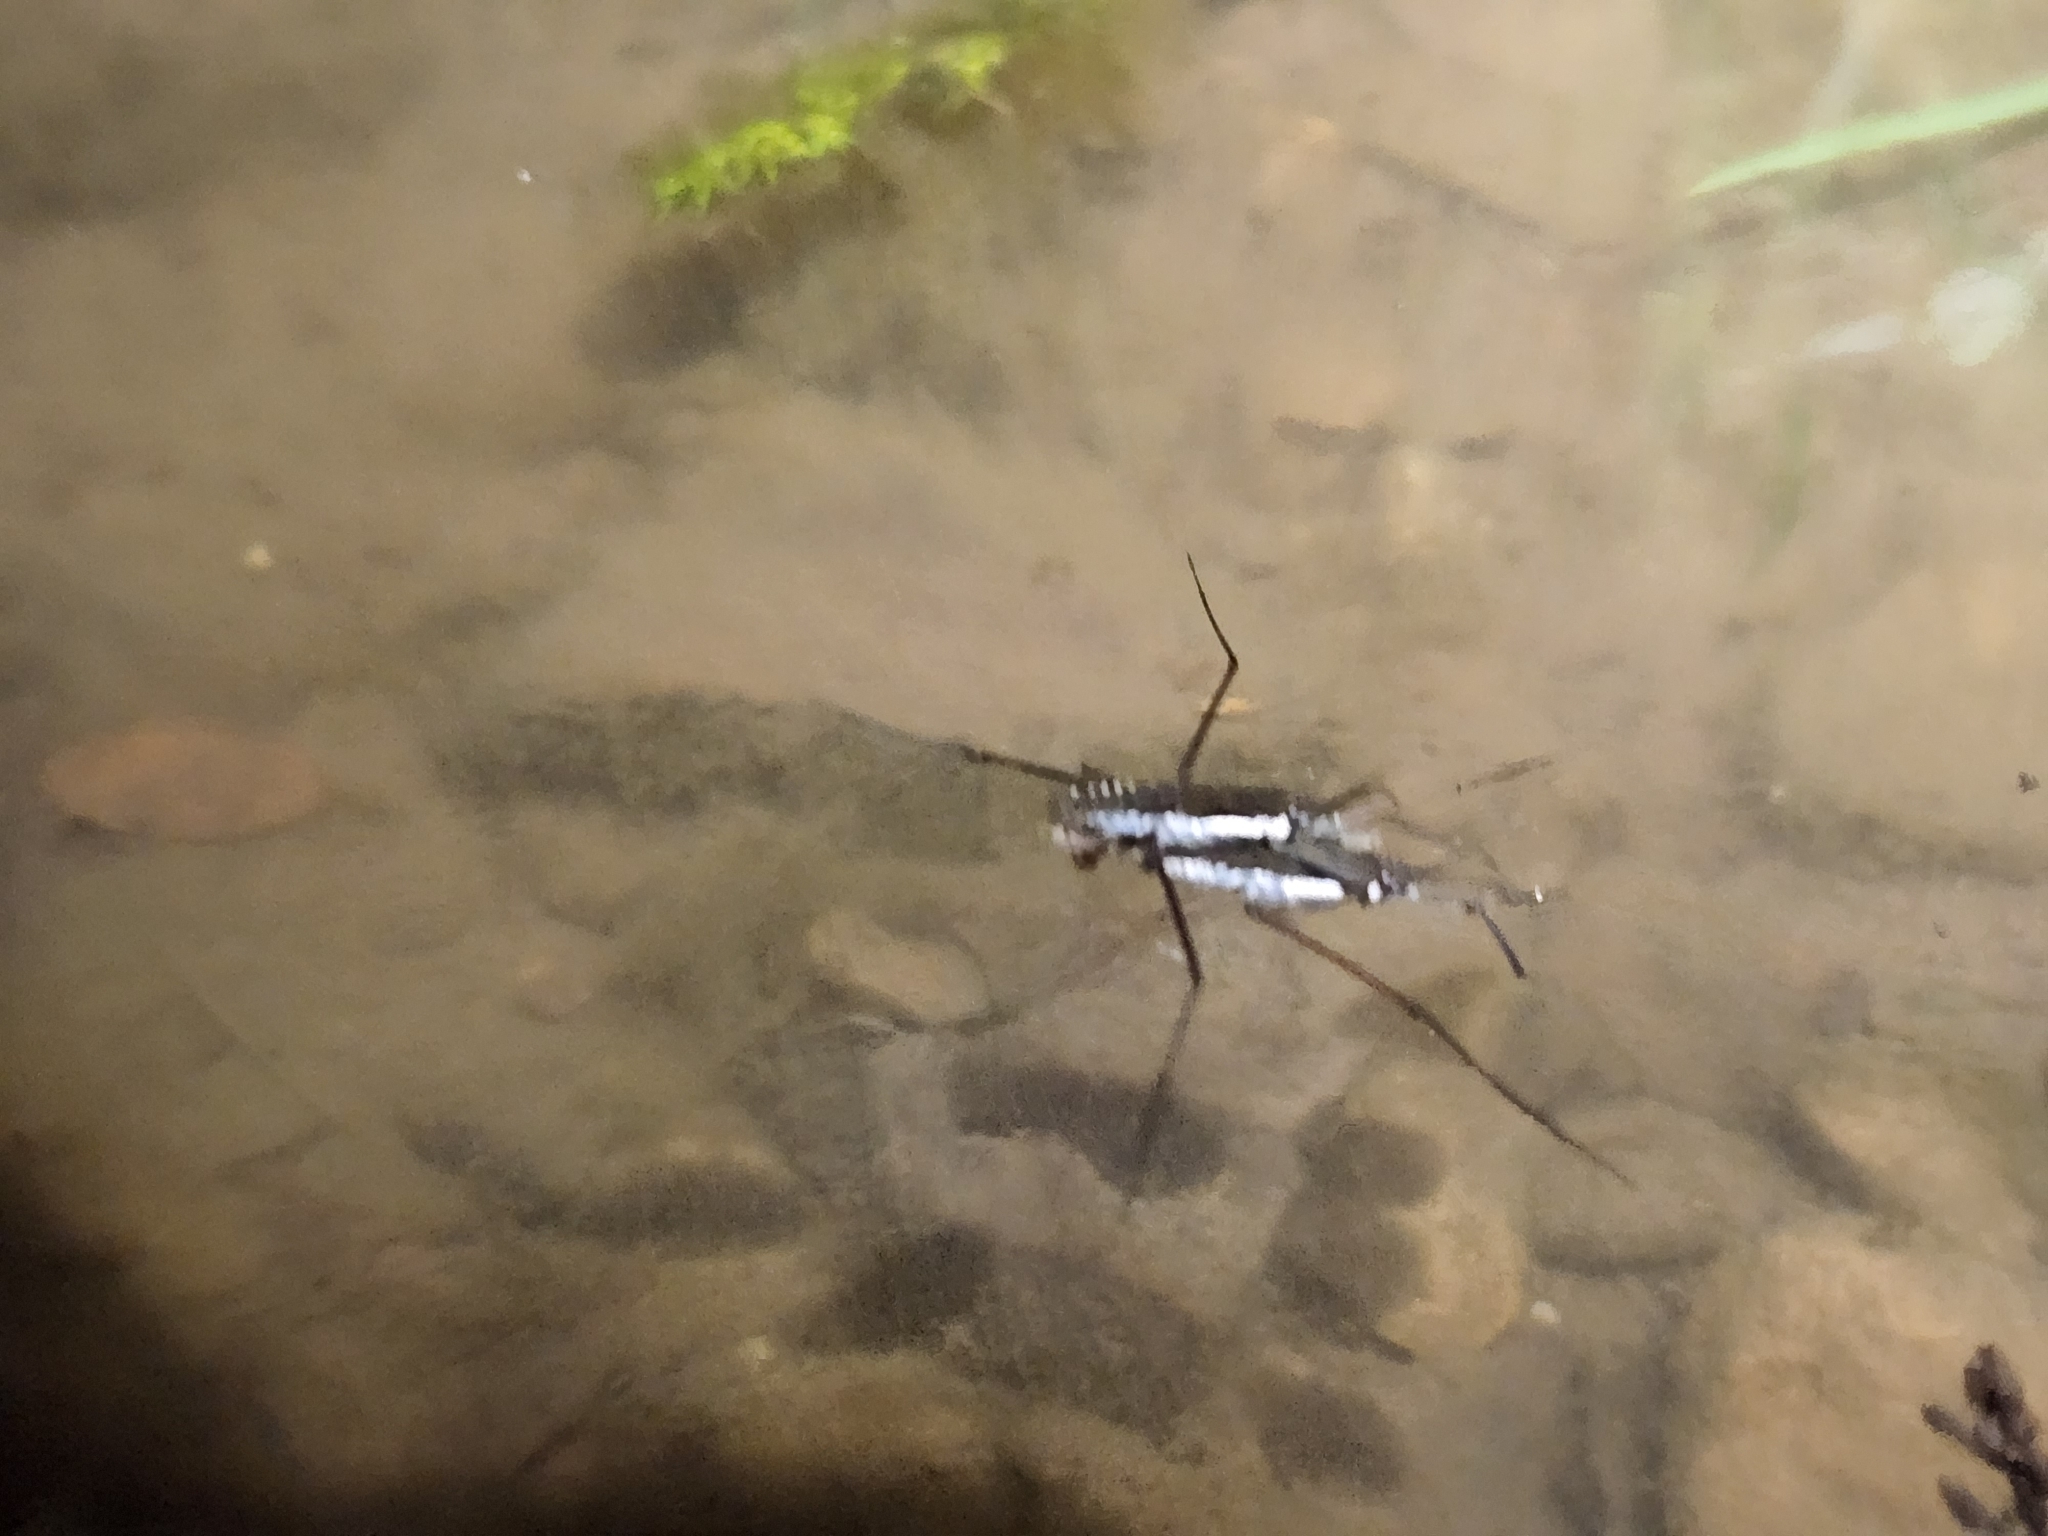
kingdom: Animalia
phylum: Arthropoda
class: Insecta
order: Hemiptera
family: Gerridae
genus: Aquarius
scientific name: Aquarius
